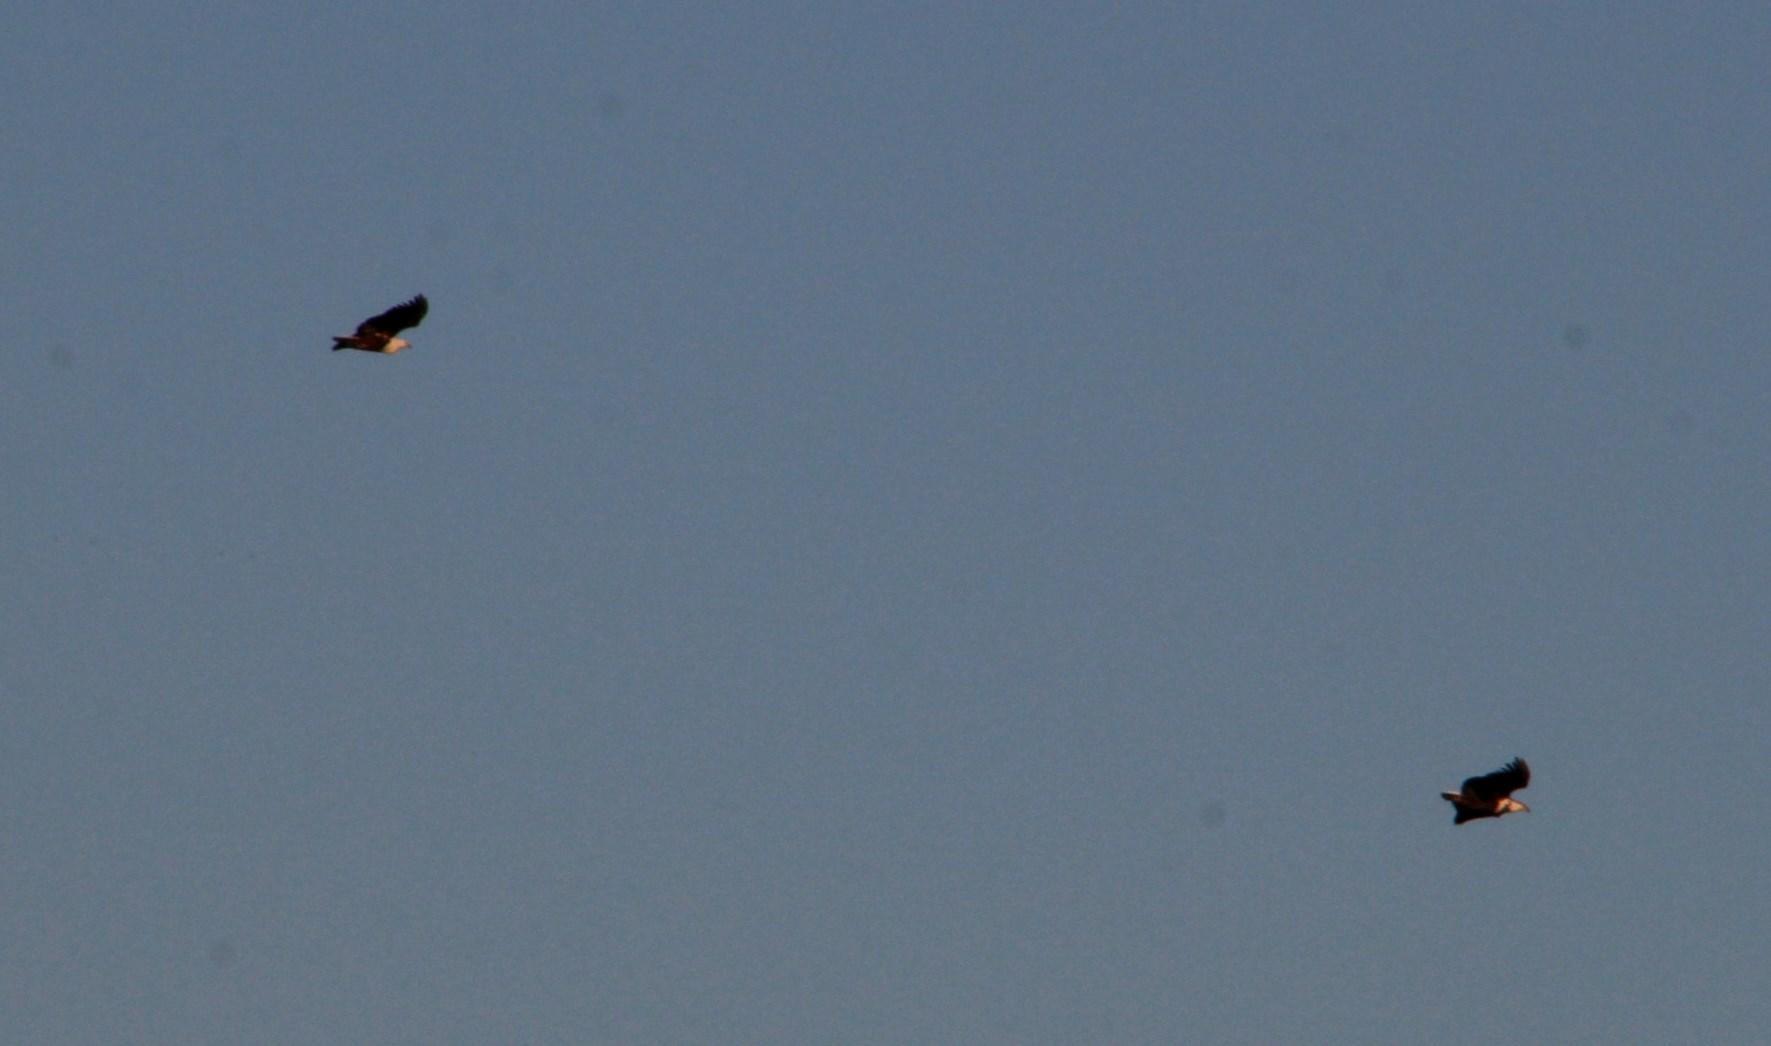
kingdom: Animalia
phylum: Chordata
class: Aves
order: Accipitriformes
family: Accipitridae
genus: Haliaeetus
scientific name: Haliaeetus vocifer
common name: African fish eagle
